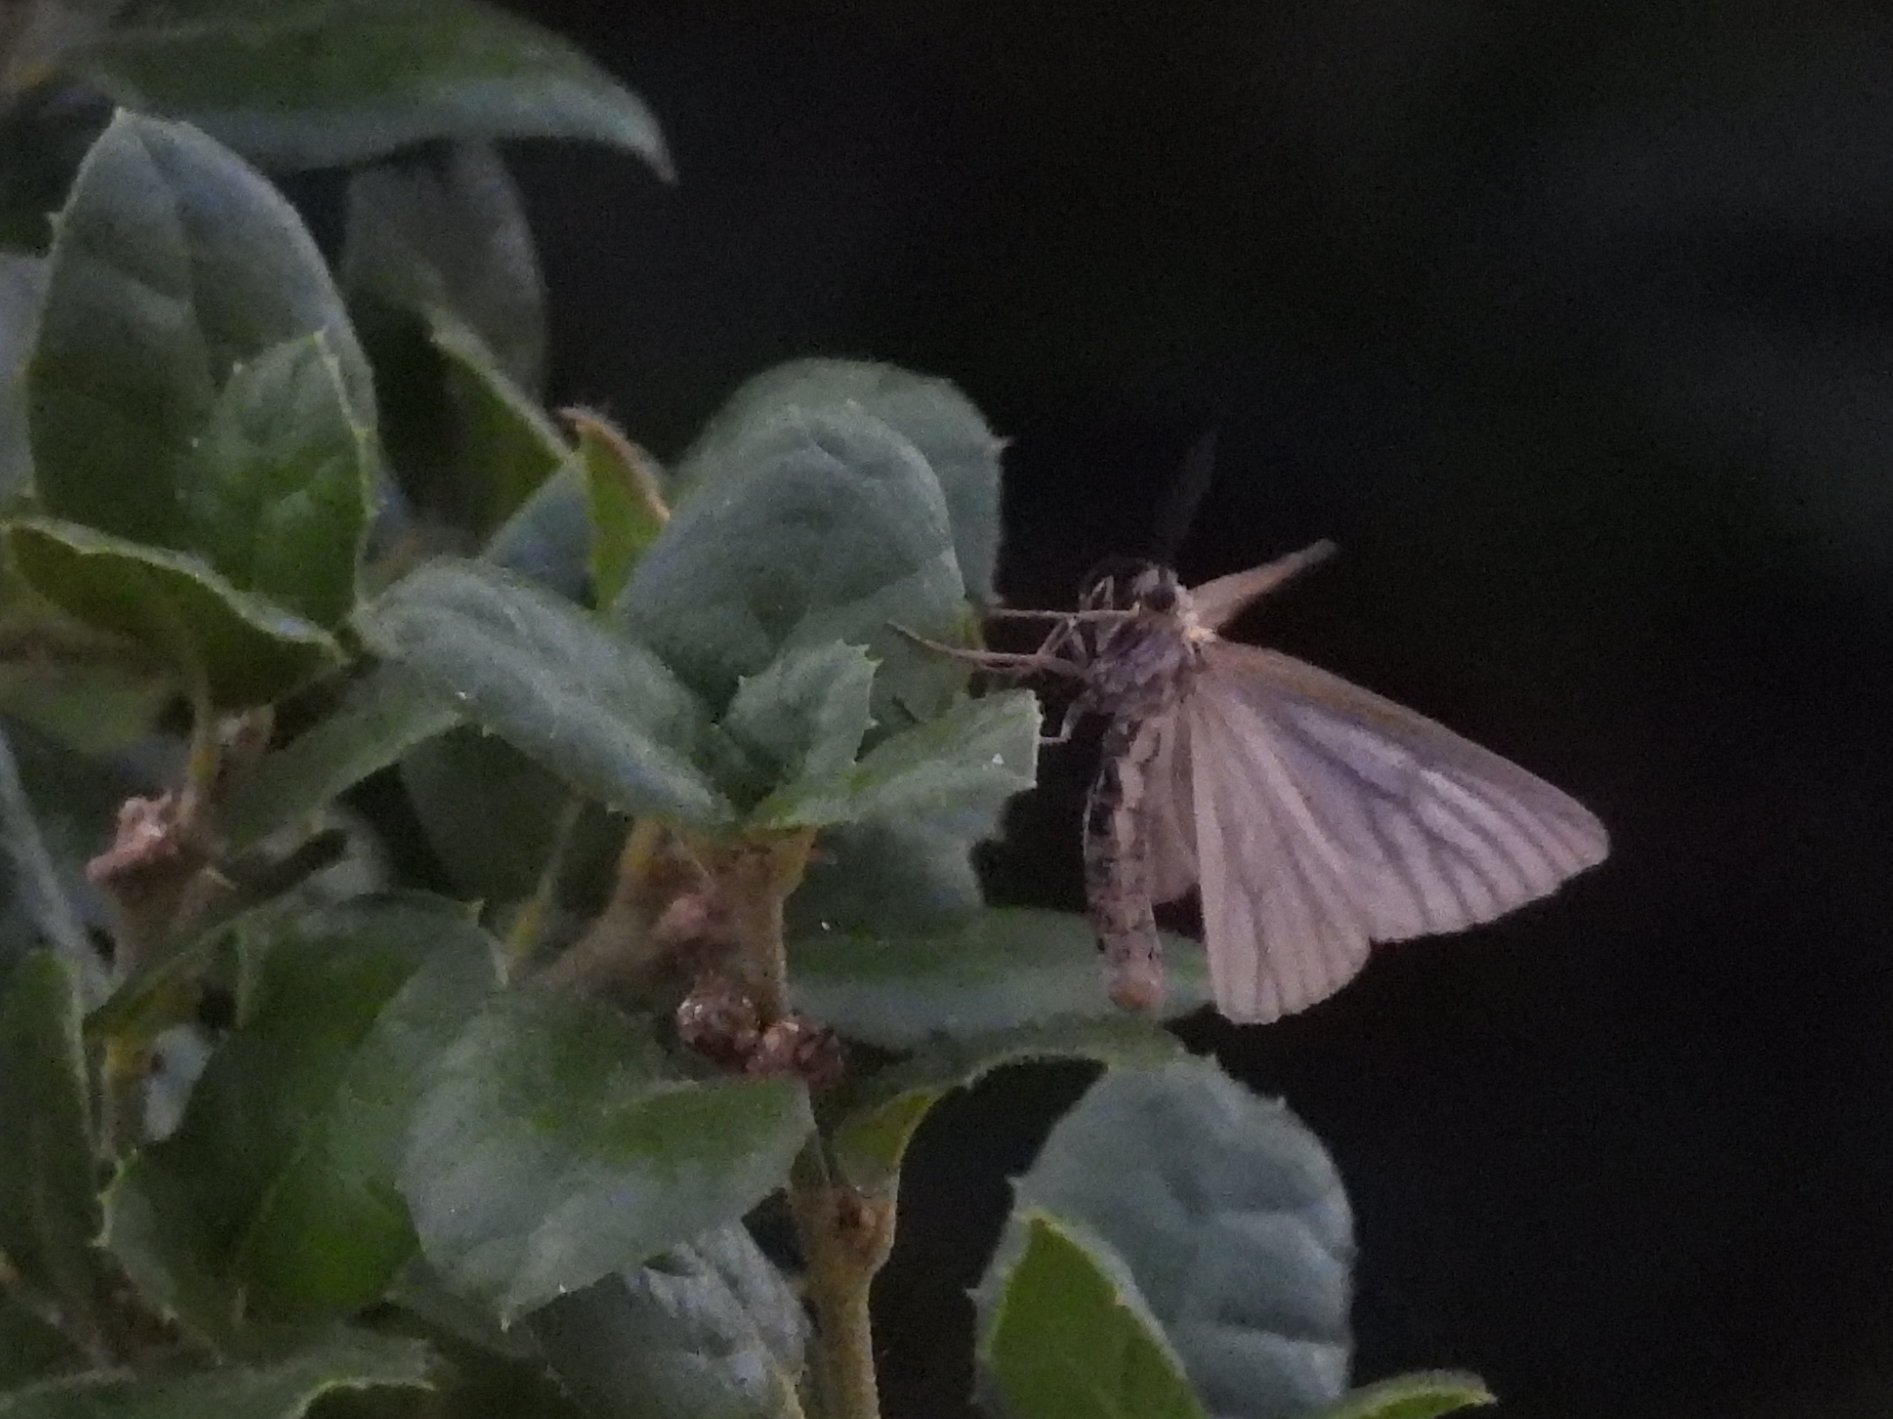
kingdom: Animalia
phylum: Arthropoda
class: Insecta
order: Lepidoptera
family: Notodontidae
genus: Phryganidia
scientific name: Phryganidia californica
